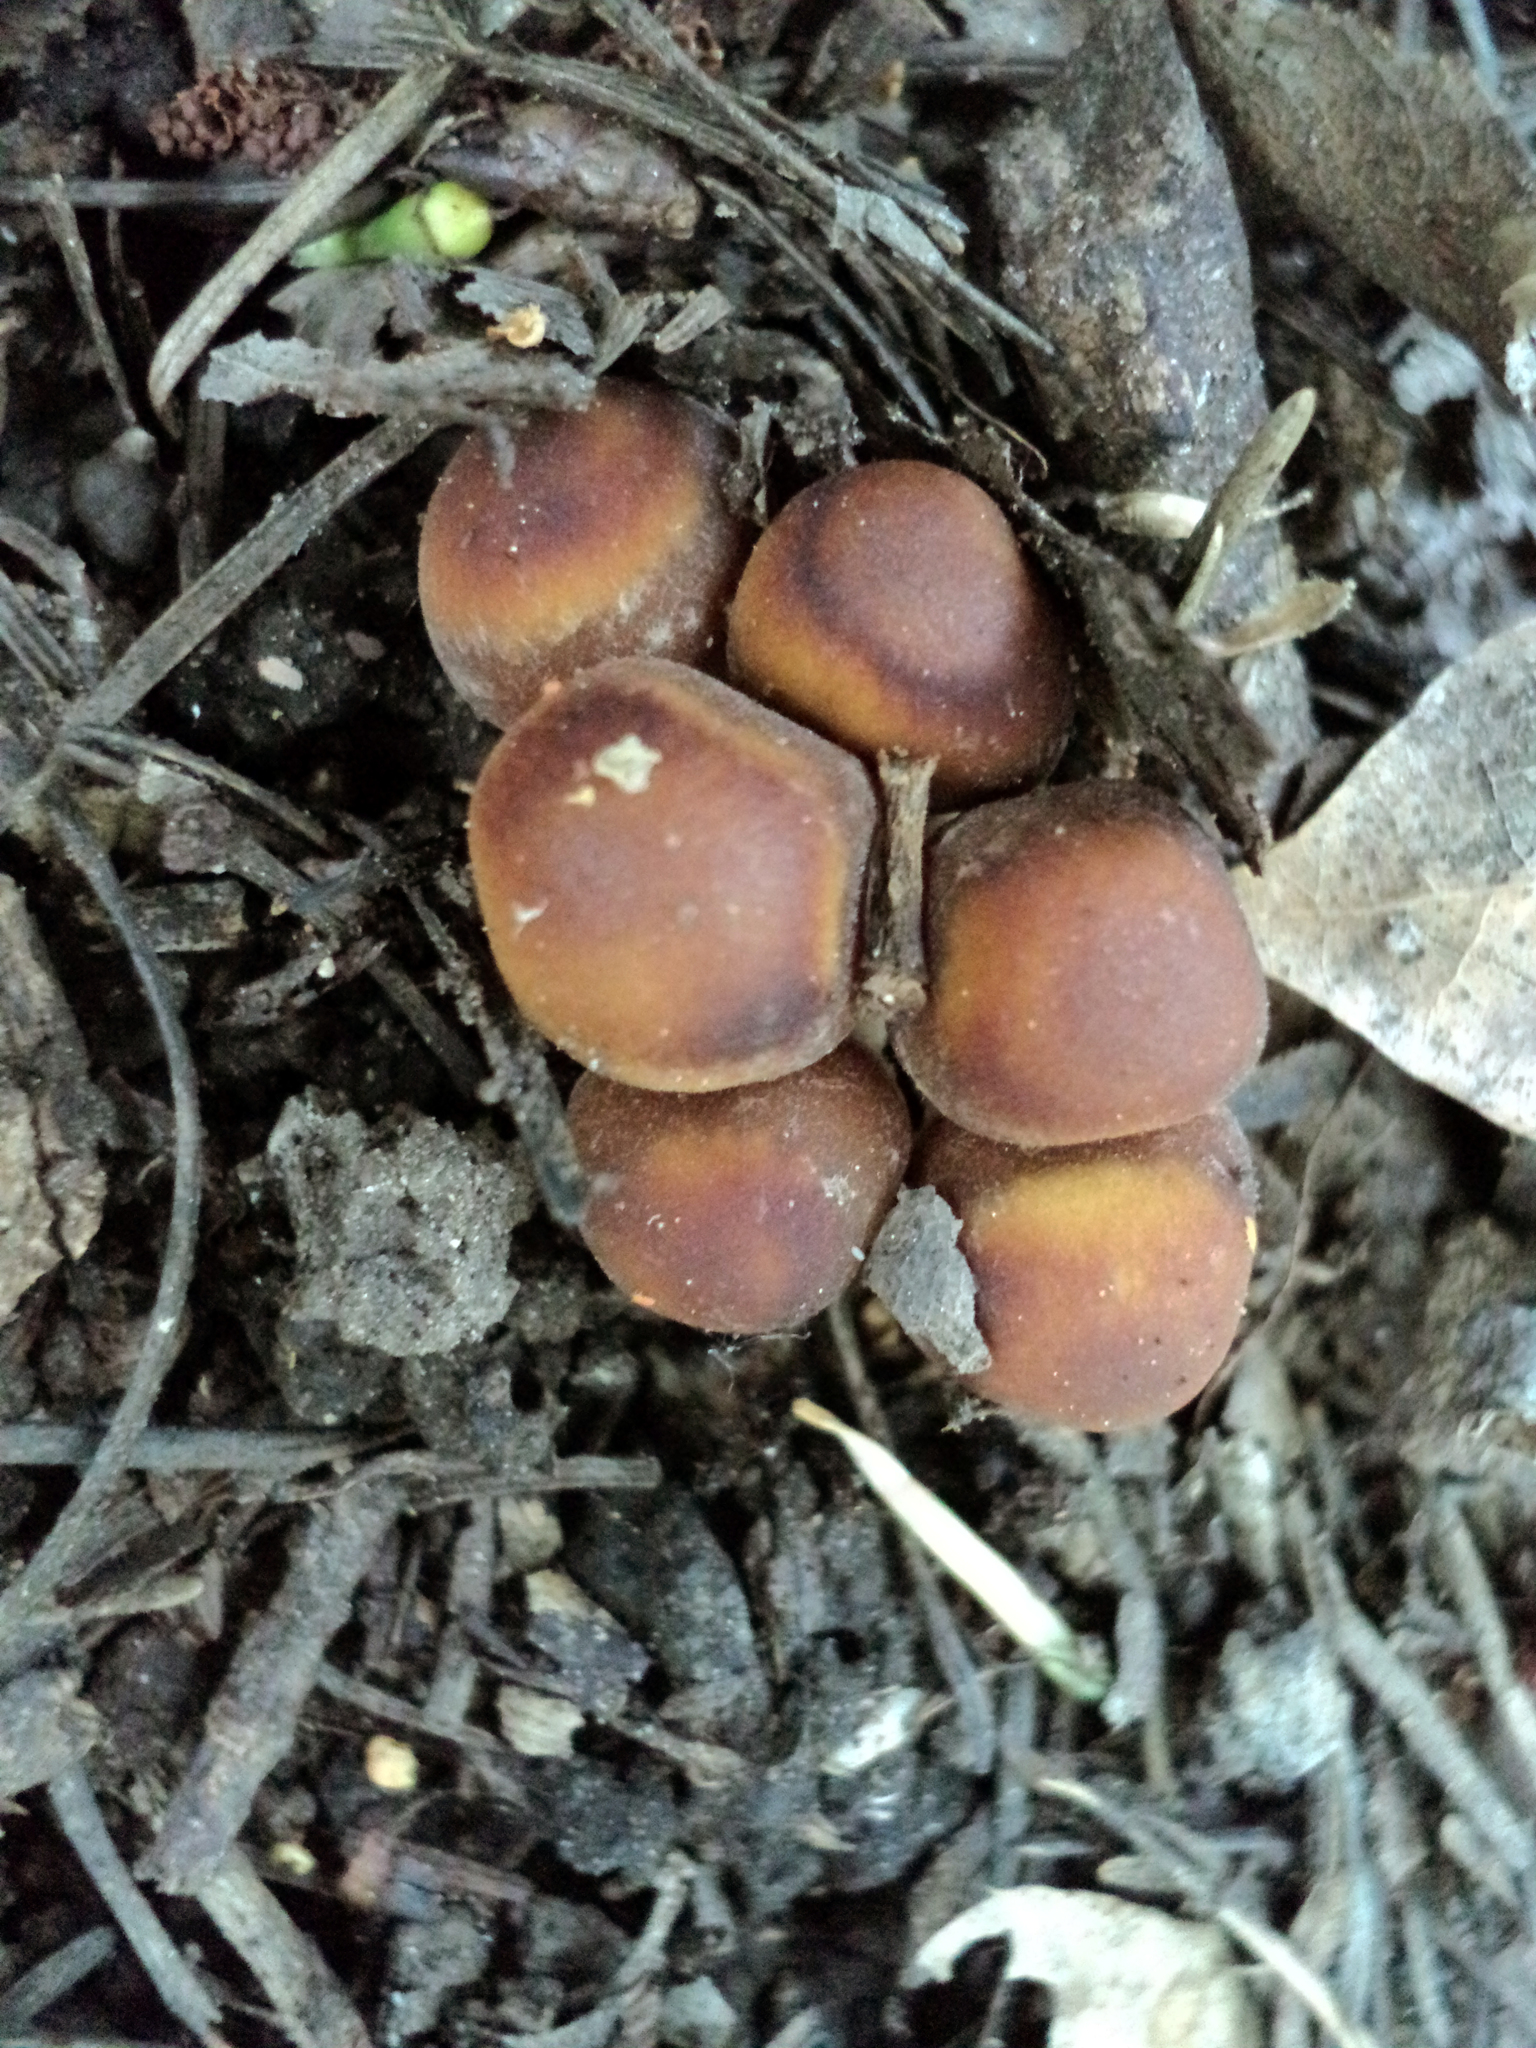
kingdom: Fungi
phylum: Basidiomycota
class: Agaricomycetes
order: Agaricales
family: Psathyrellaceae
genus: Psathyrella
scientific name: Psathyrella piluliformis
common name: Common stump brittlestem
